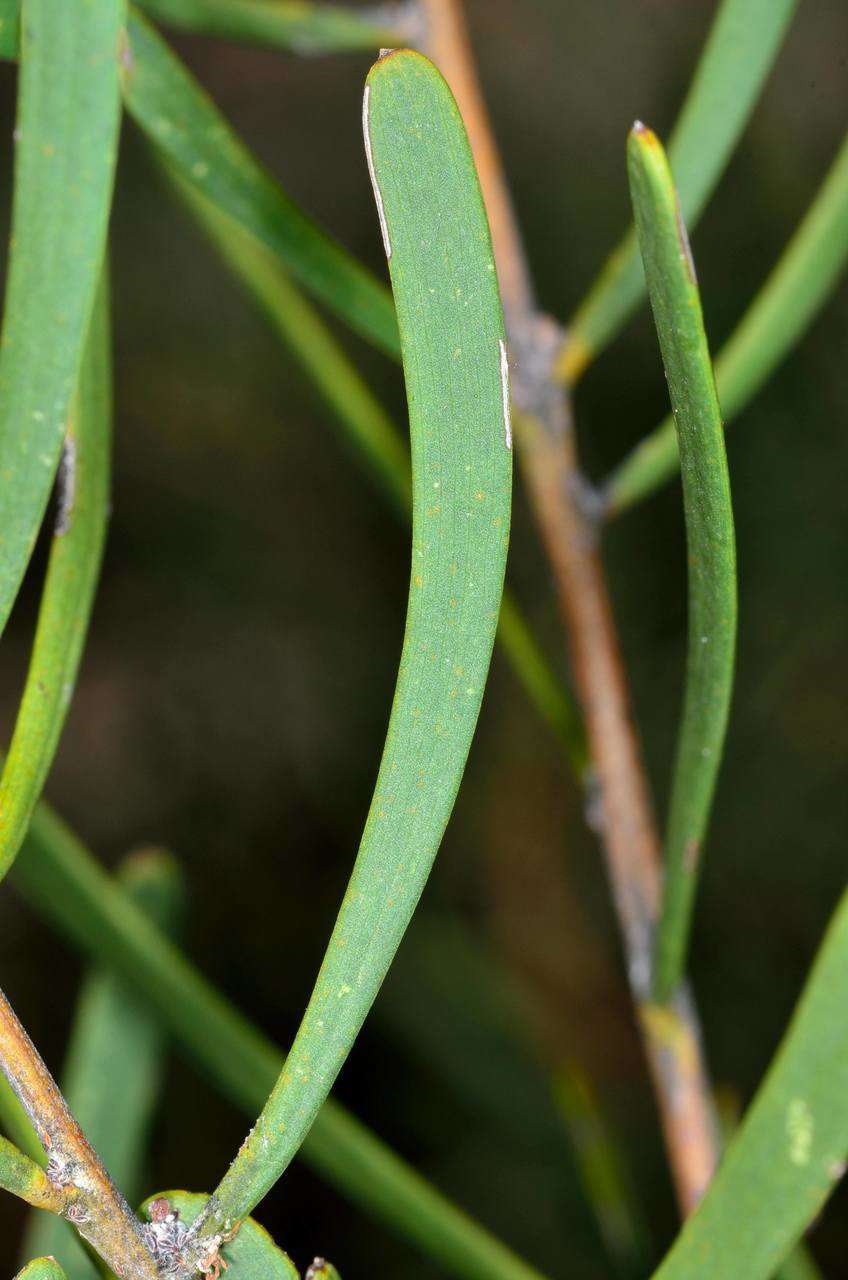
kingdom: Plantae
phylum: Tracheophyta
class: Magnoliopsida
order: Fabales
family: Fabaceae
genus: Acacia
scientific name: Acacia farinosa
